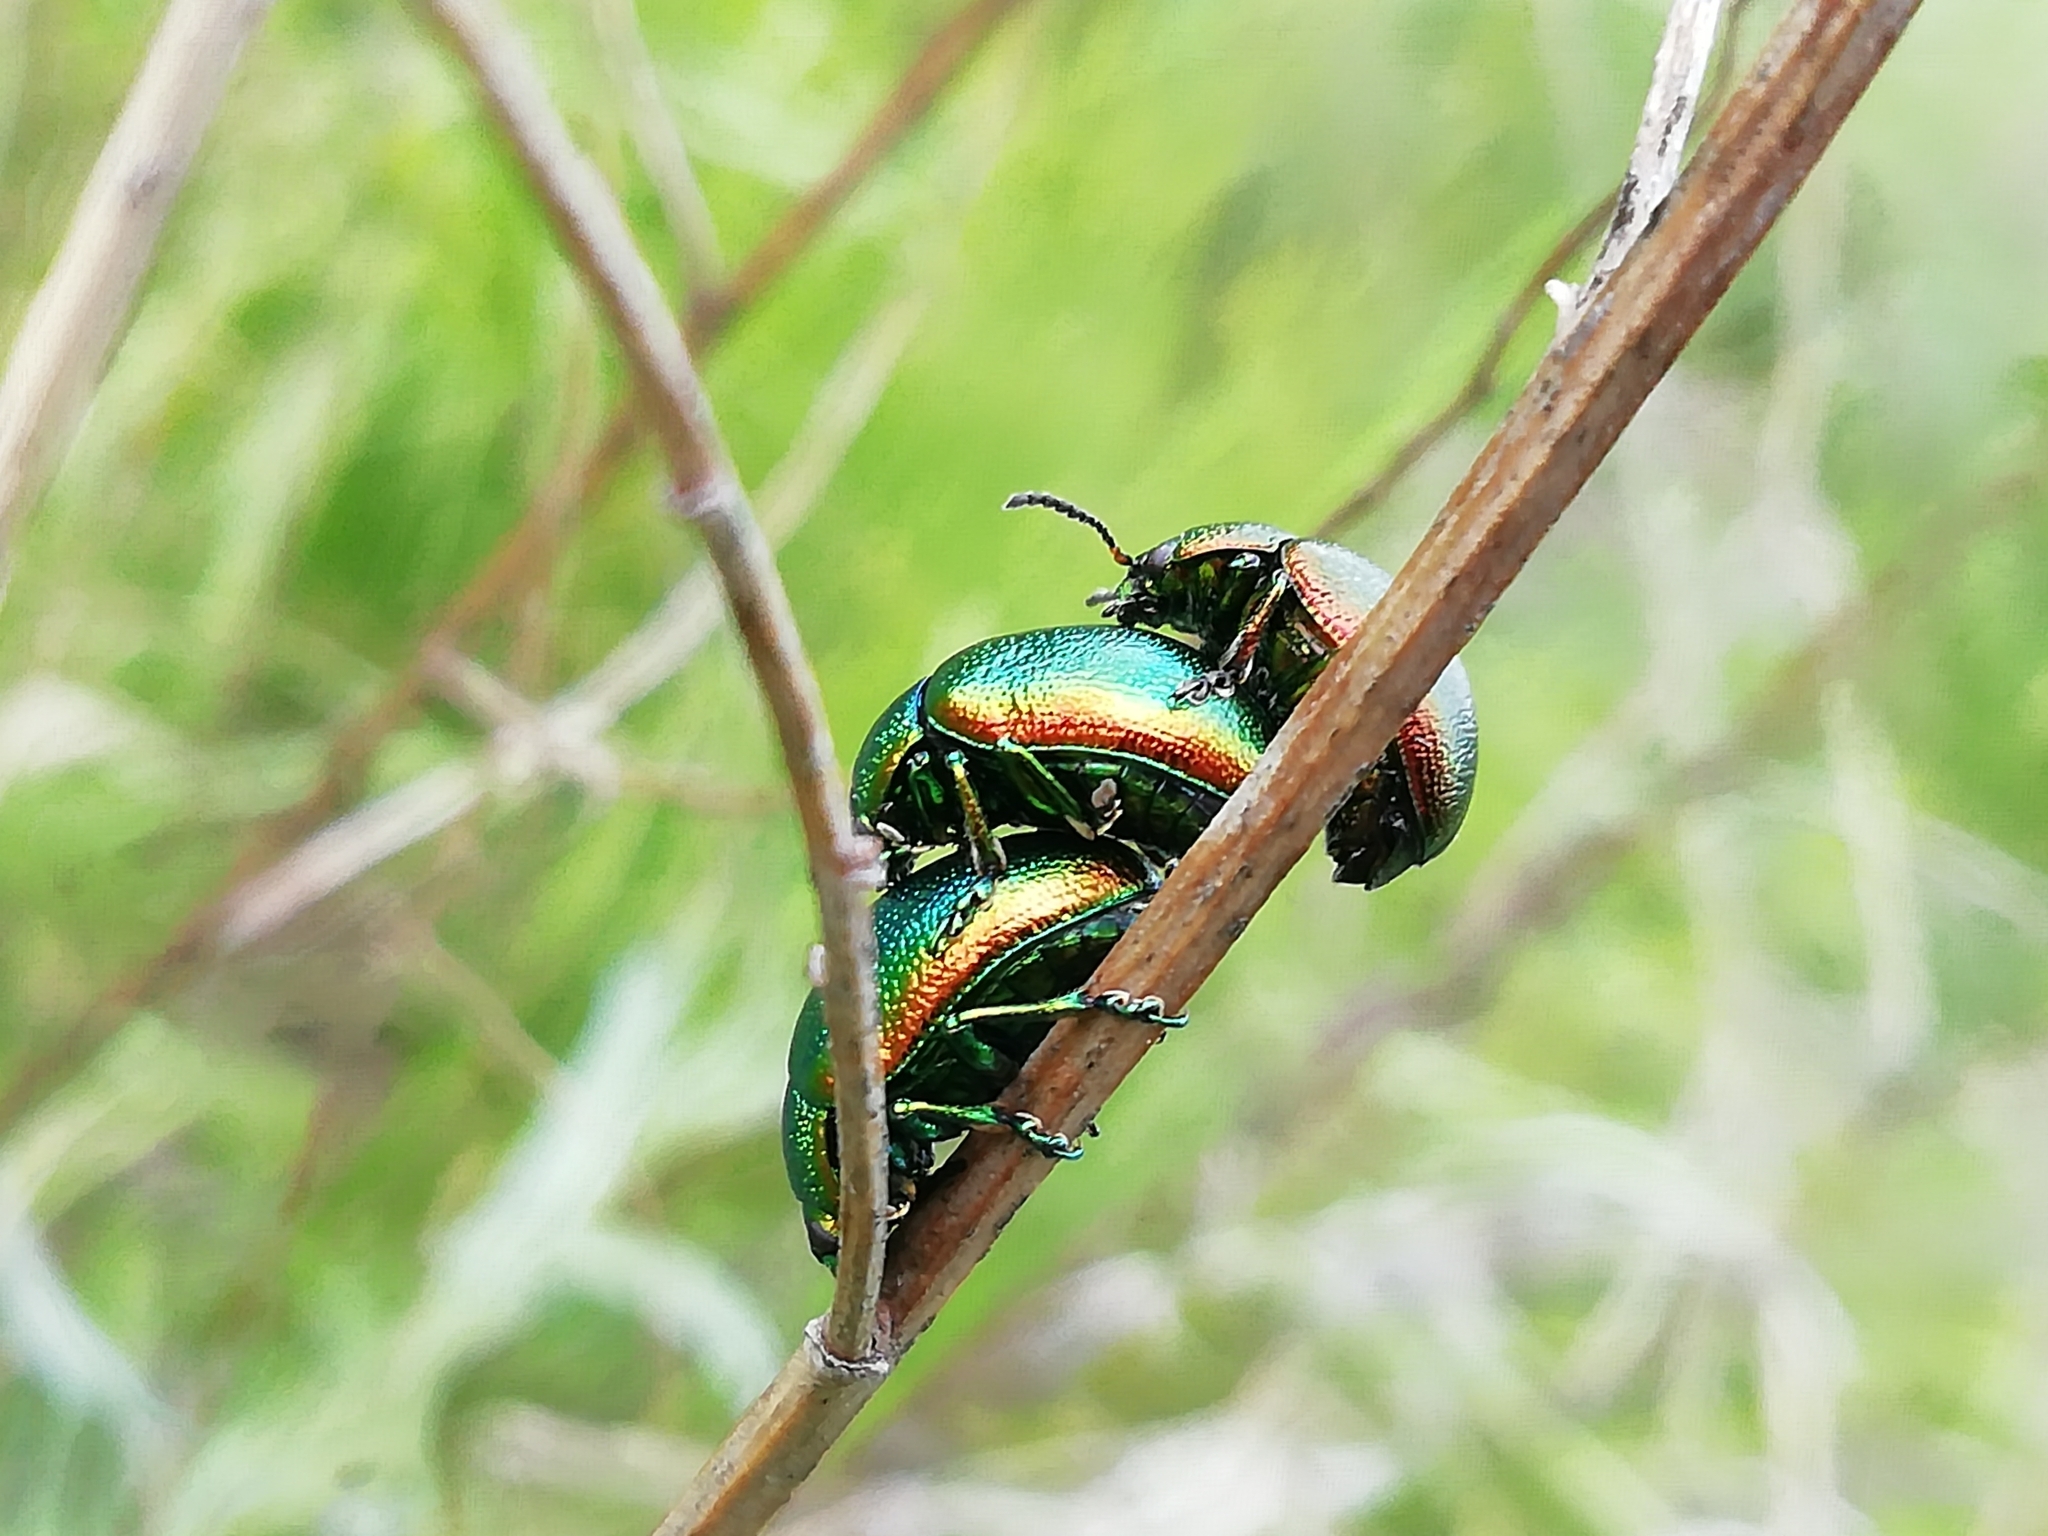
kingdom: Animalia
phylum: Arthropoda
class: Insecta
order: Coleoptera
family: Chrysomelidae
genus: Chrysolina
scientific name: Chrysolina graminis
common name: Tansey beetle
